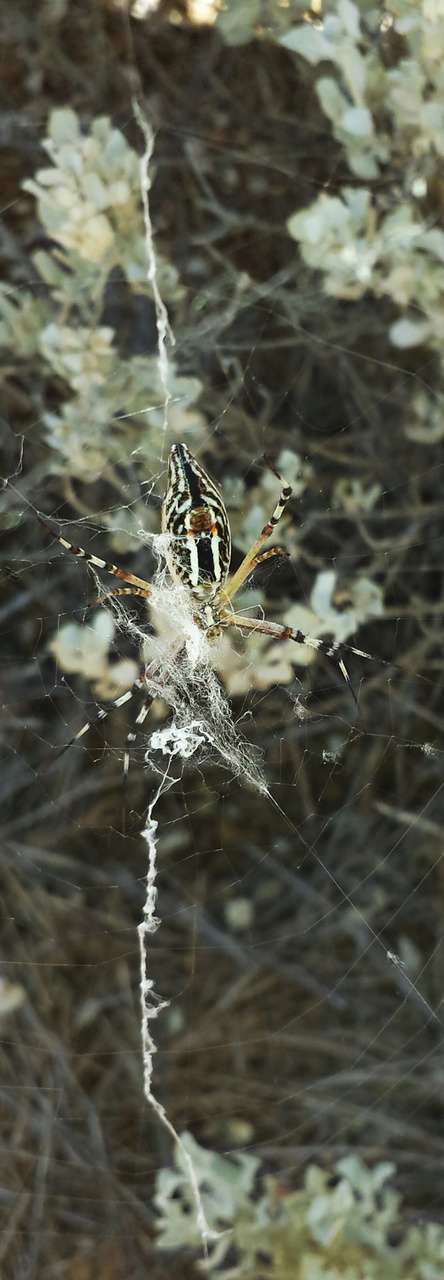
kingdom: Animalia
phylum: Arthropoda
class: Arachnida
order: Araneae
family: Araneidae
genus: Argiope
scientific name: Argiope protensa
